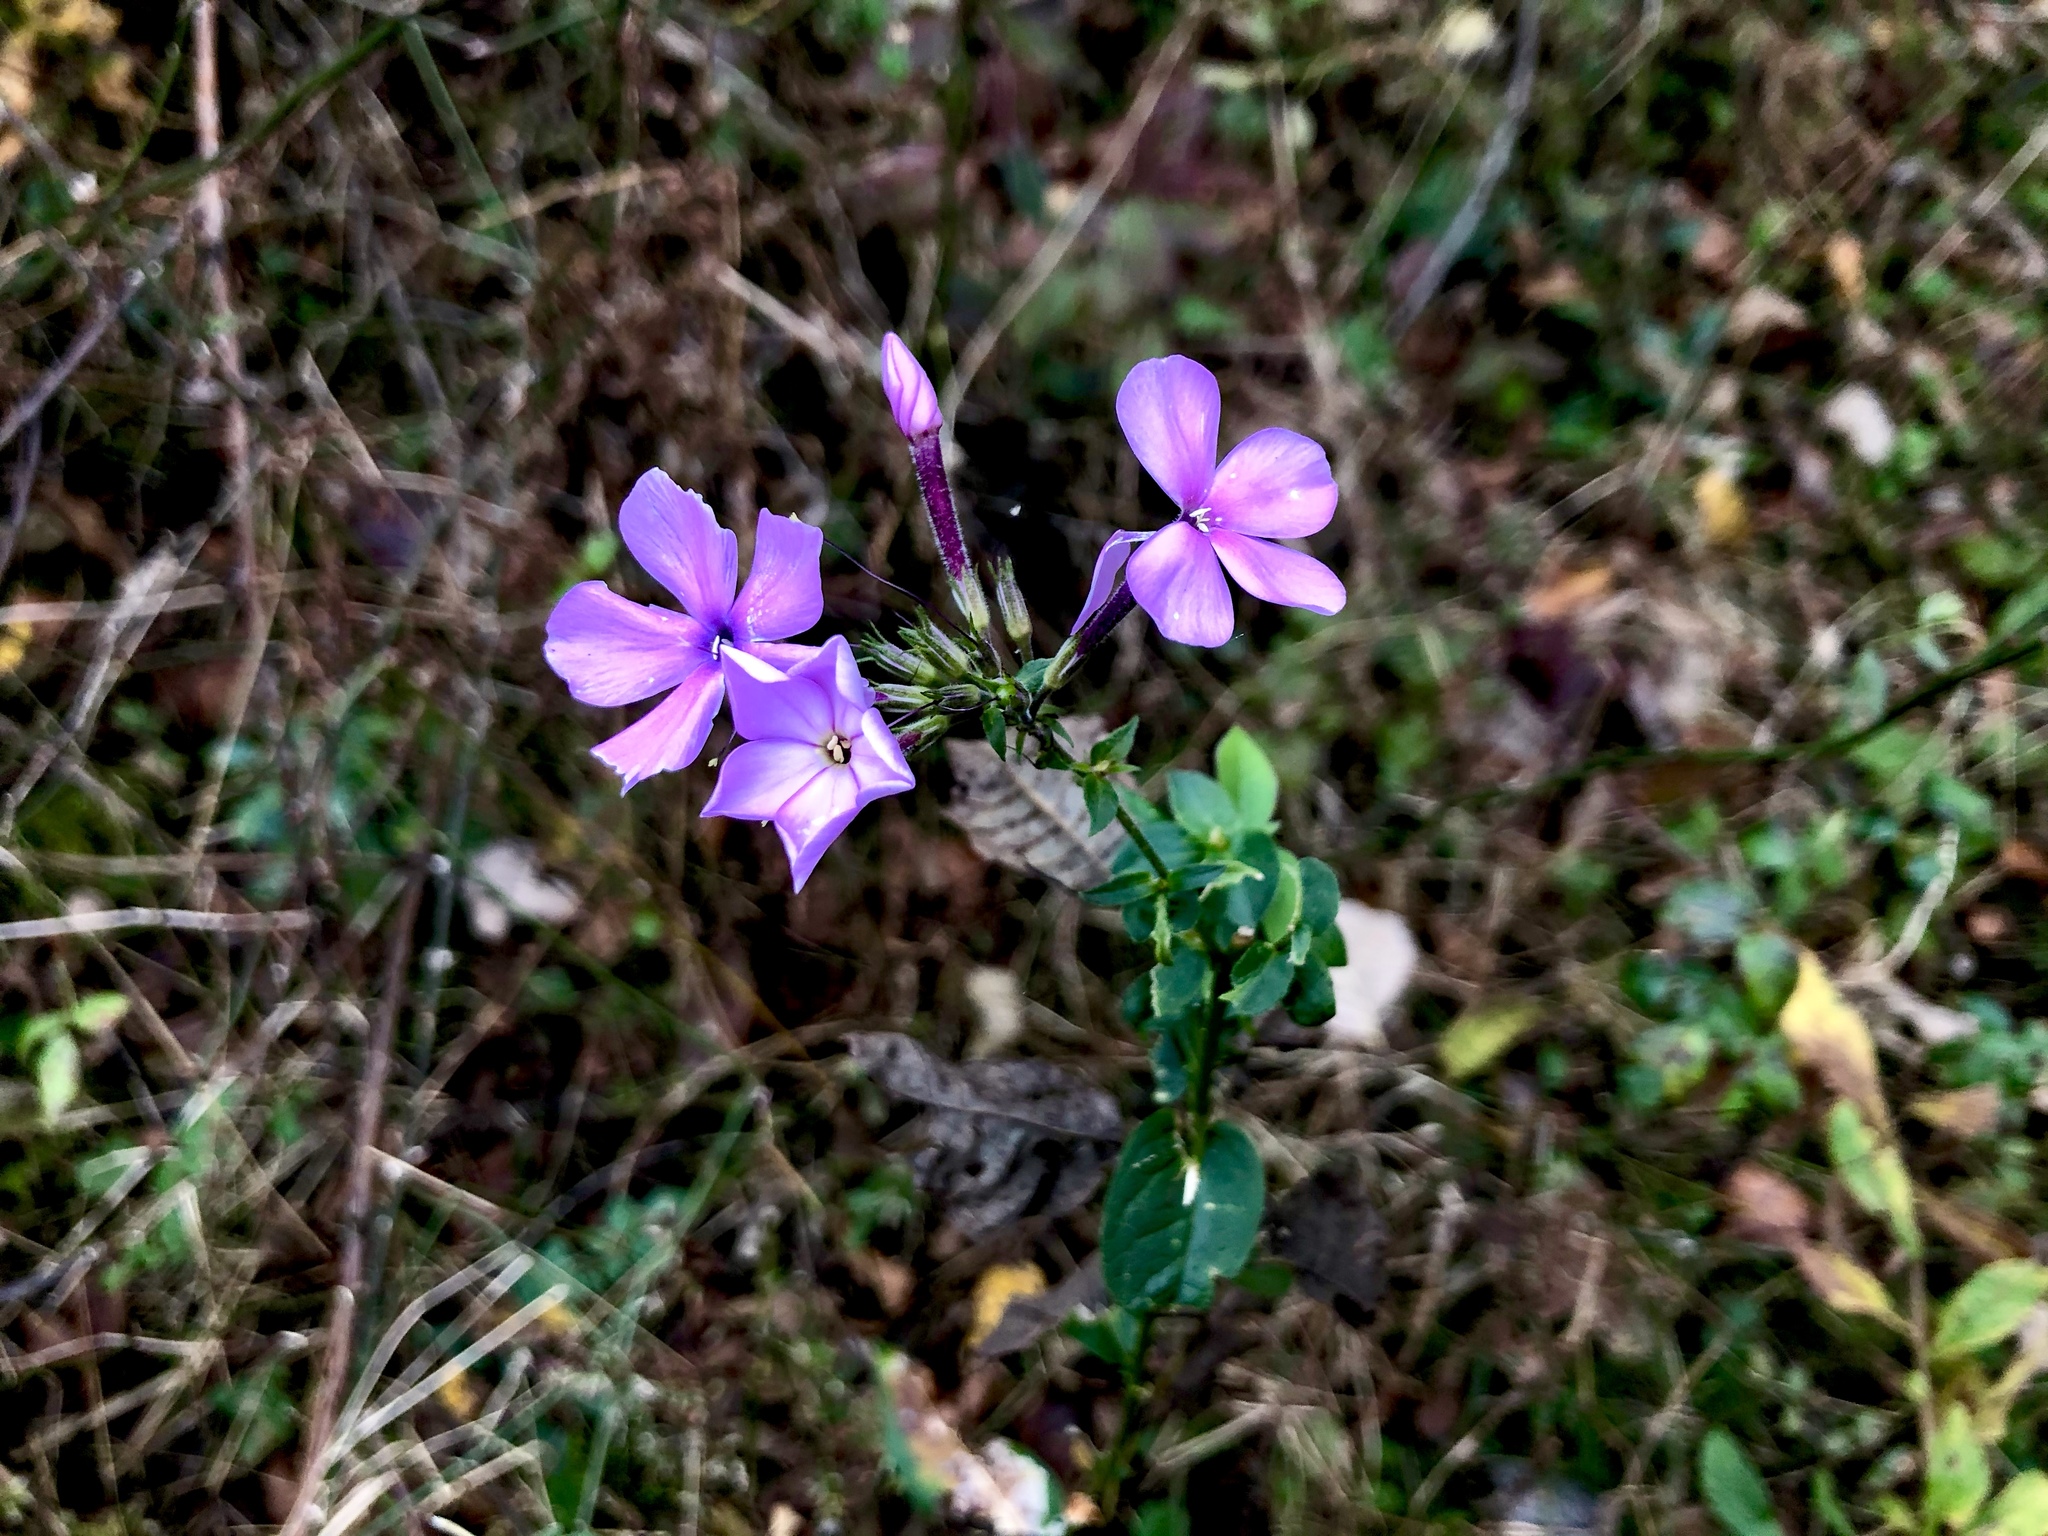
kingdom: Plantae
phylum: Tracheophyta
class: Magnoliopsida
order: Ericales
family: Polemoniaceae
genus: Phlox
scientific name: Phlox paniculata
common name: Fall phlox
